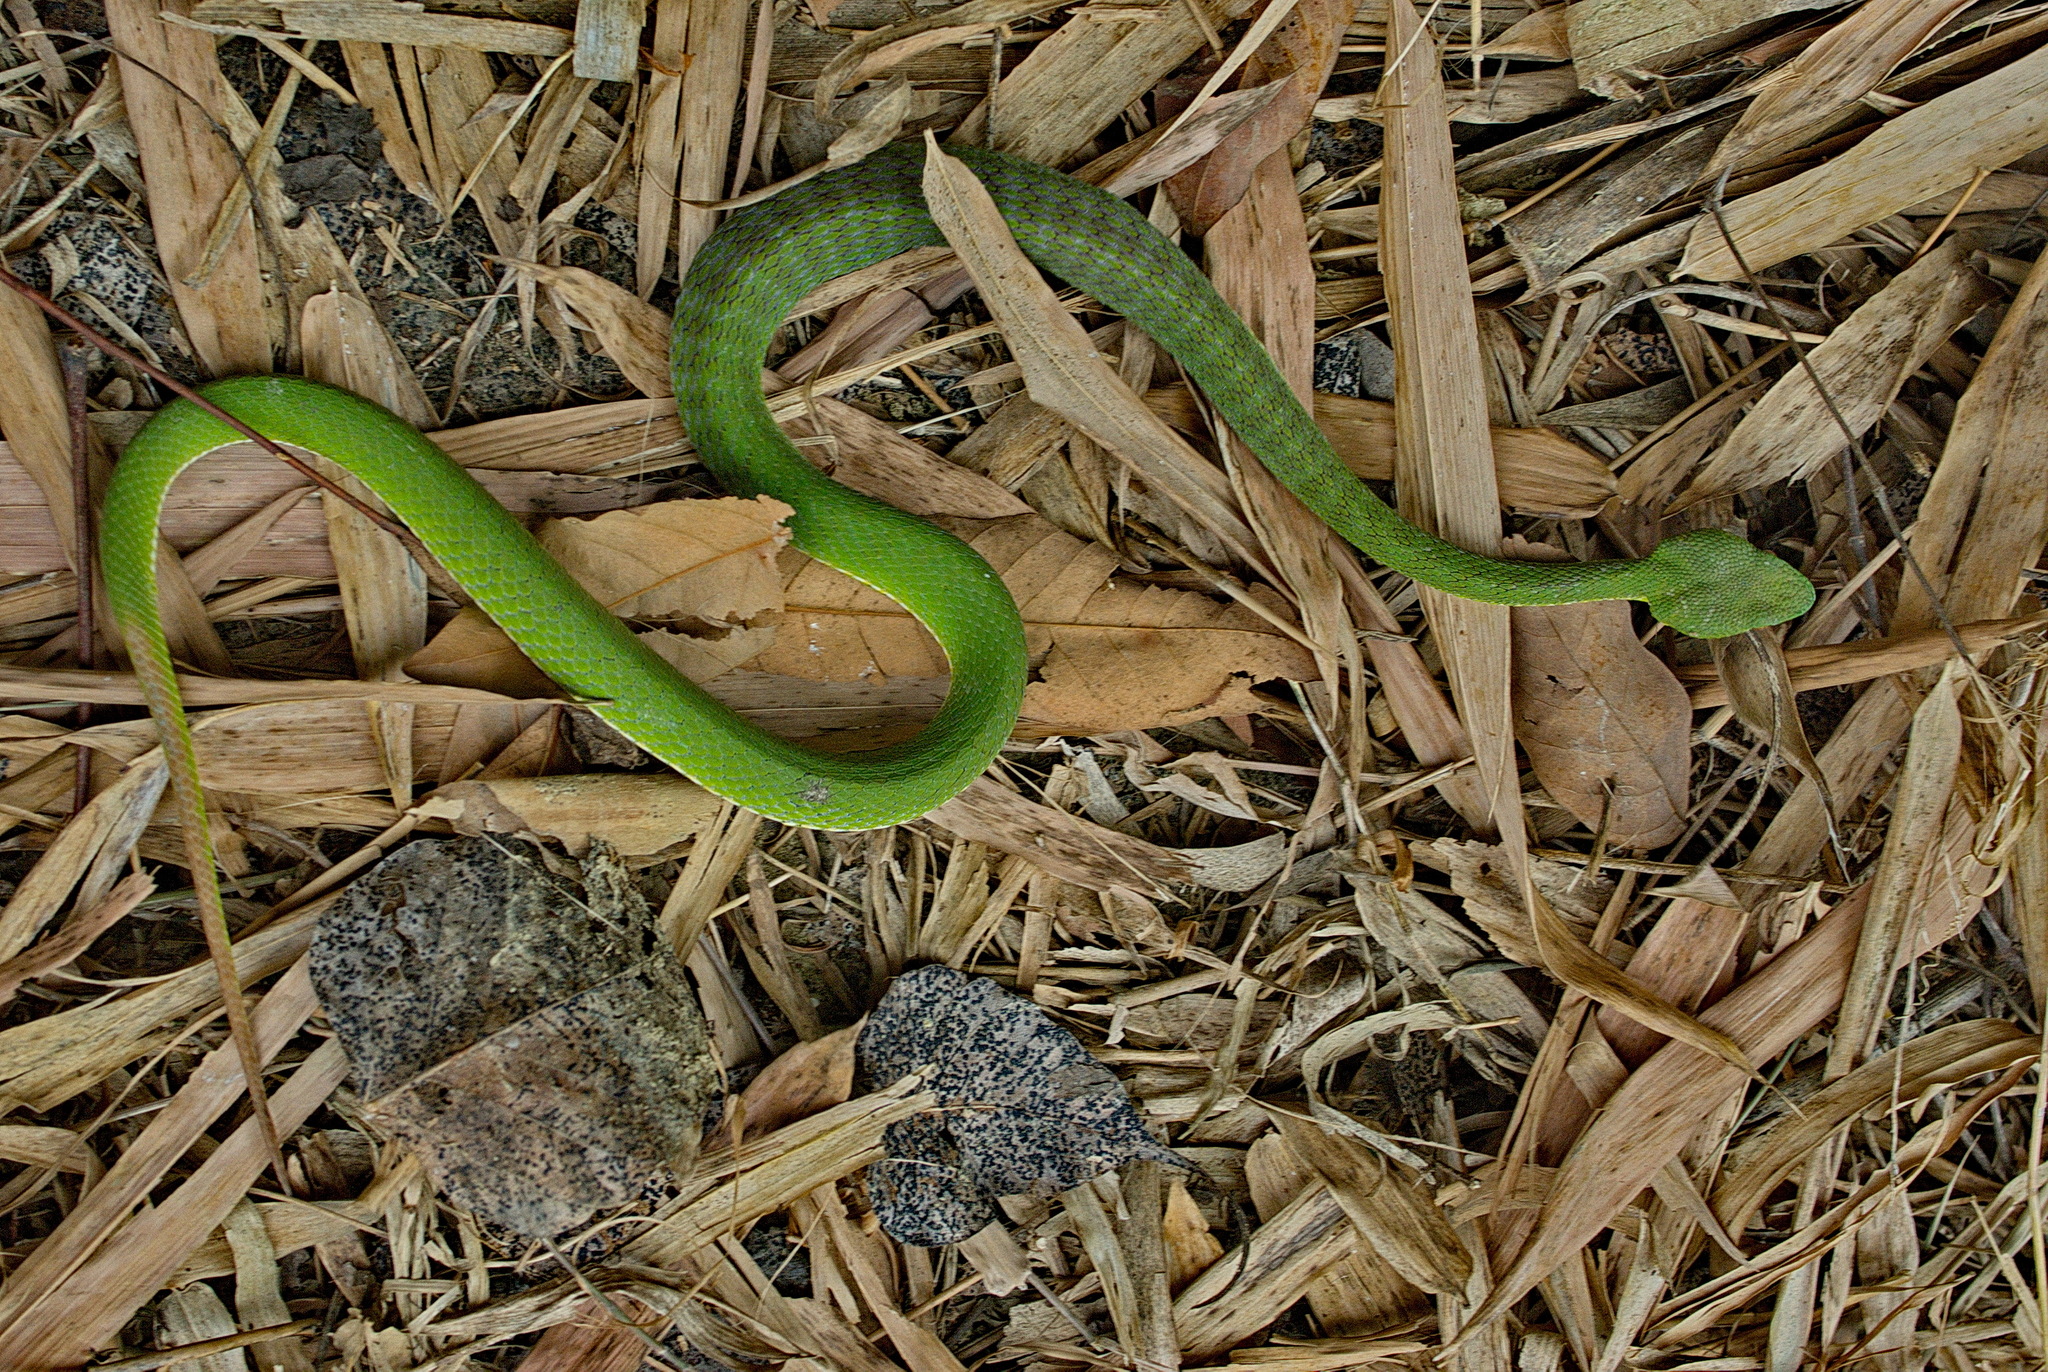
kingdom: Animalia
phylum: Chordata
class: Squamata
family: Viperidae
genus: Trimeresurus
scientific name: Trimeresurus stejnegeri
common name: Chen’s bamboo pit viper
